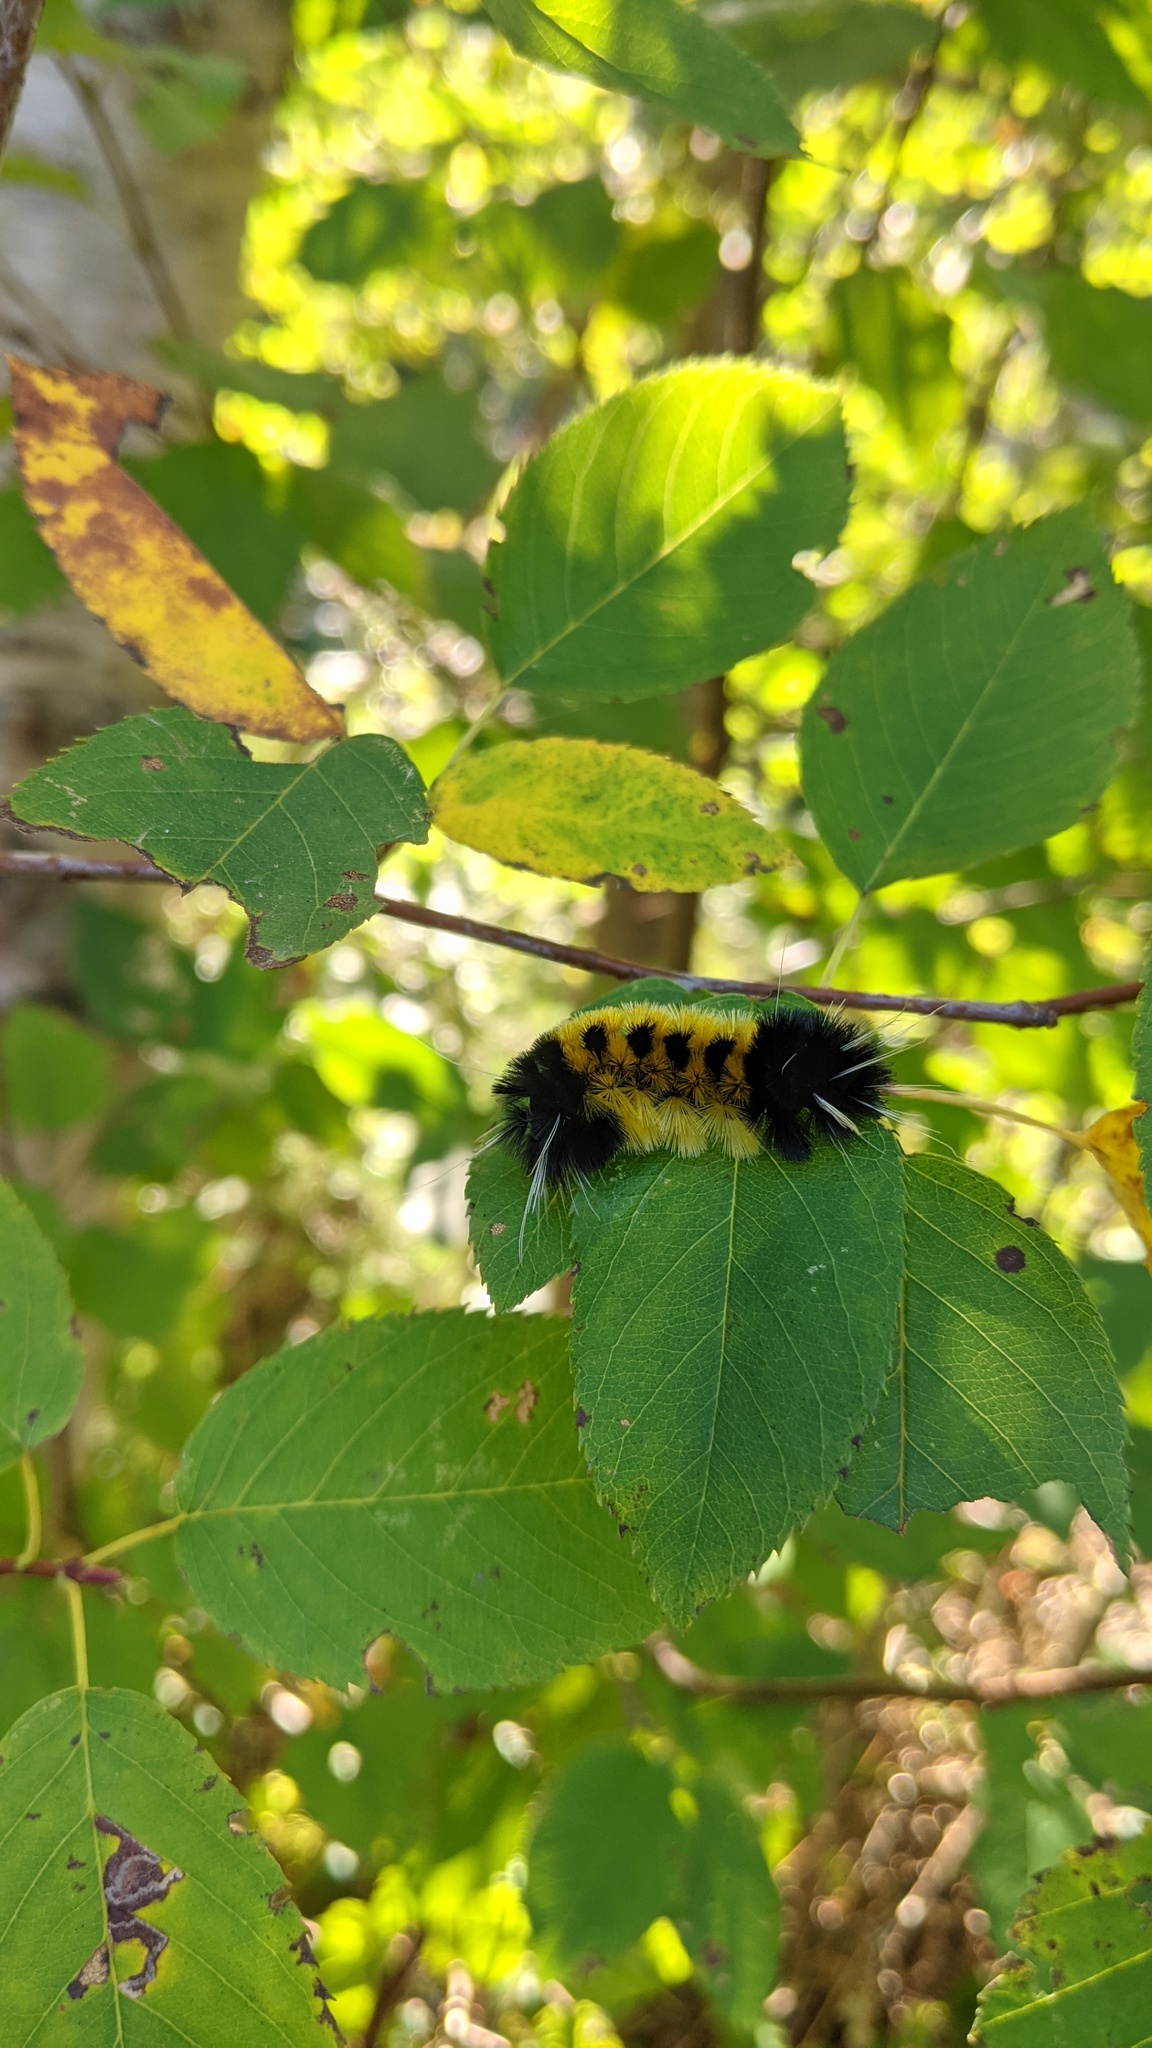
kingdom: Animalia
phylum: Arthropoda
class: Insecta
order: Lepidoptera
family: Erebidae
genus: Lophocampa
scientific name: Lophocampa maculata
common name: Spotted tussock moth
